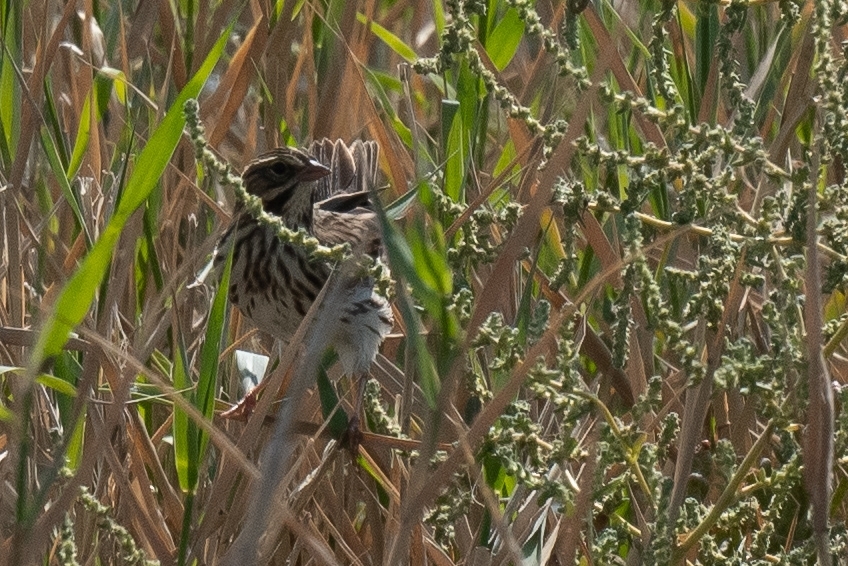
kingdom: Animalia
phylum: Chordata
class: Aves
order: Passeriformes
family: Passerellidae
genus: Passerculus
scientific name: Passerculus sandwichensis
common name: Savannah sparrow
